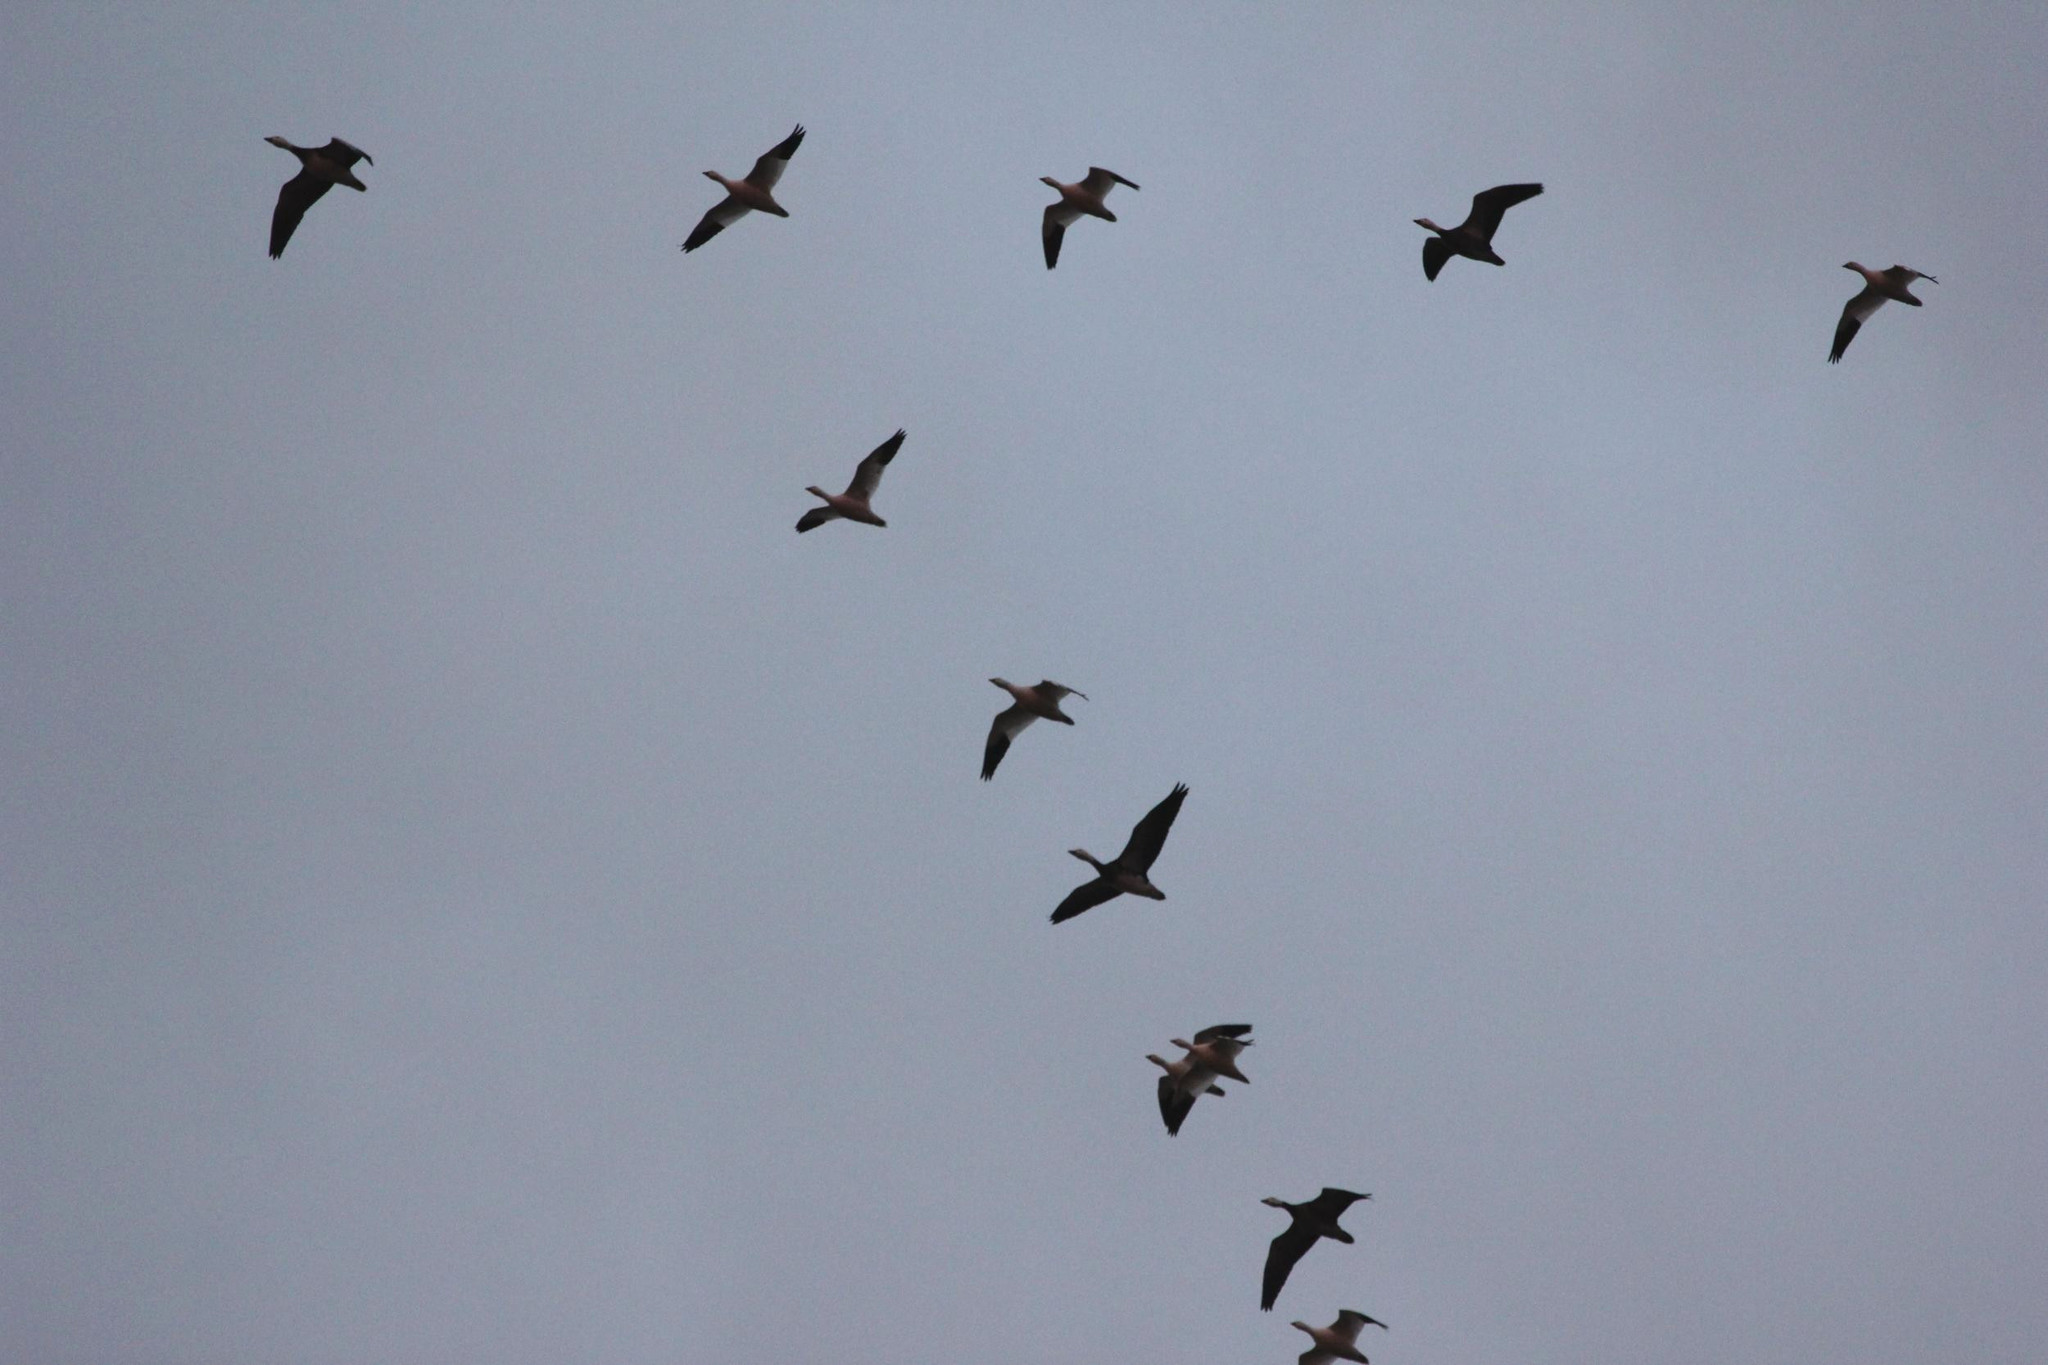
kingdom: Animalia
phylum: Chordata
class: Aves
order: Anseriformes
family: Anatidae
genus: Anser
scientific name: Anser caerulescens
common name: Snow goose
